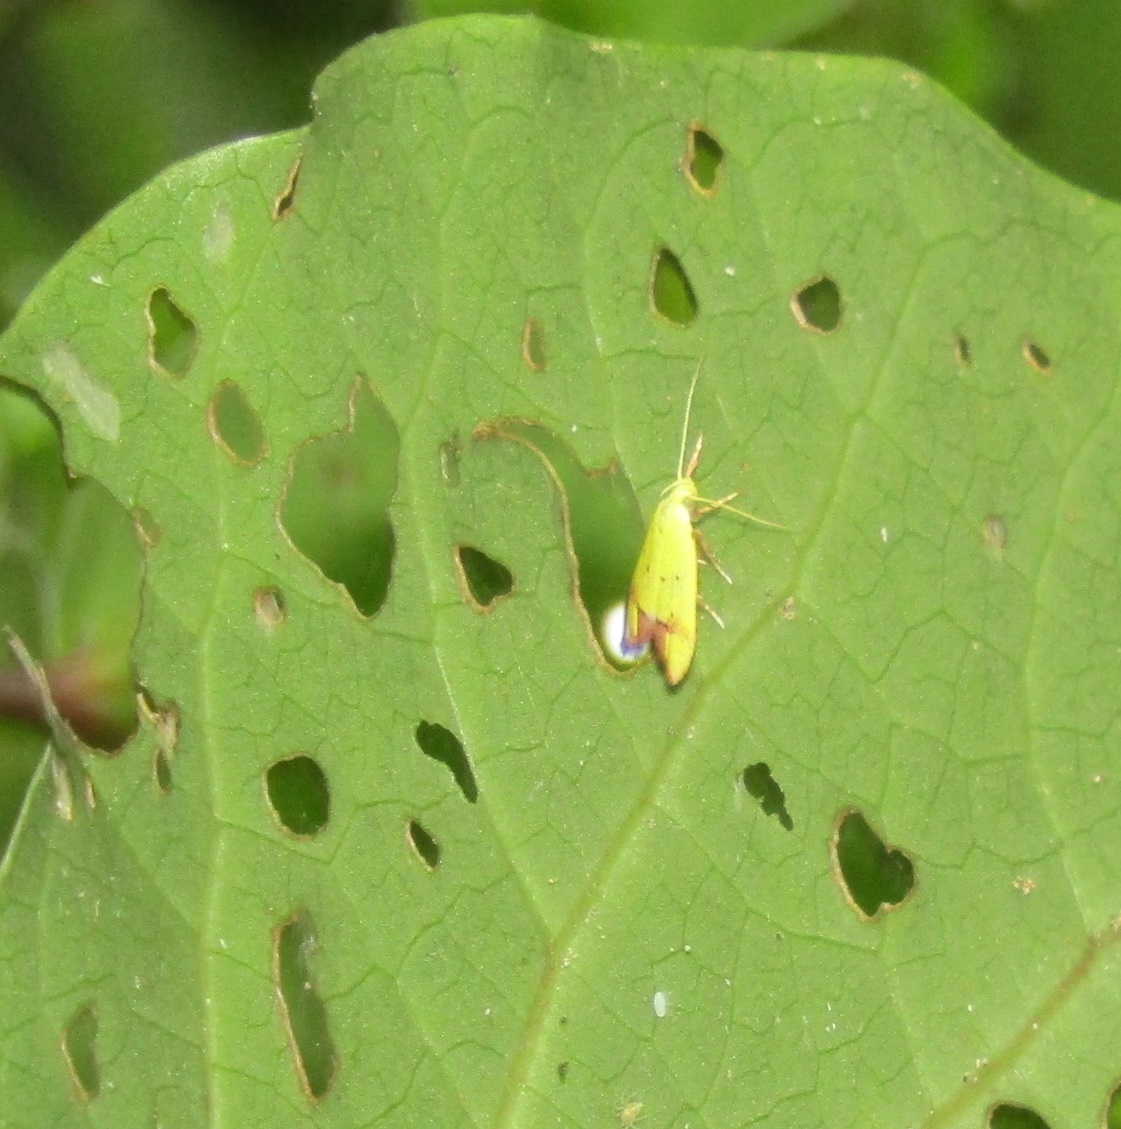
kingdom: Animalia
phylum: Arthropoda
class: Insecta
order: Lepidoptera
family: Oecophoridae
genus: Gymnobathra
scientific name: Gymnobathra flavidella
